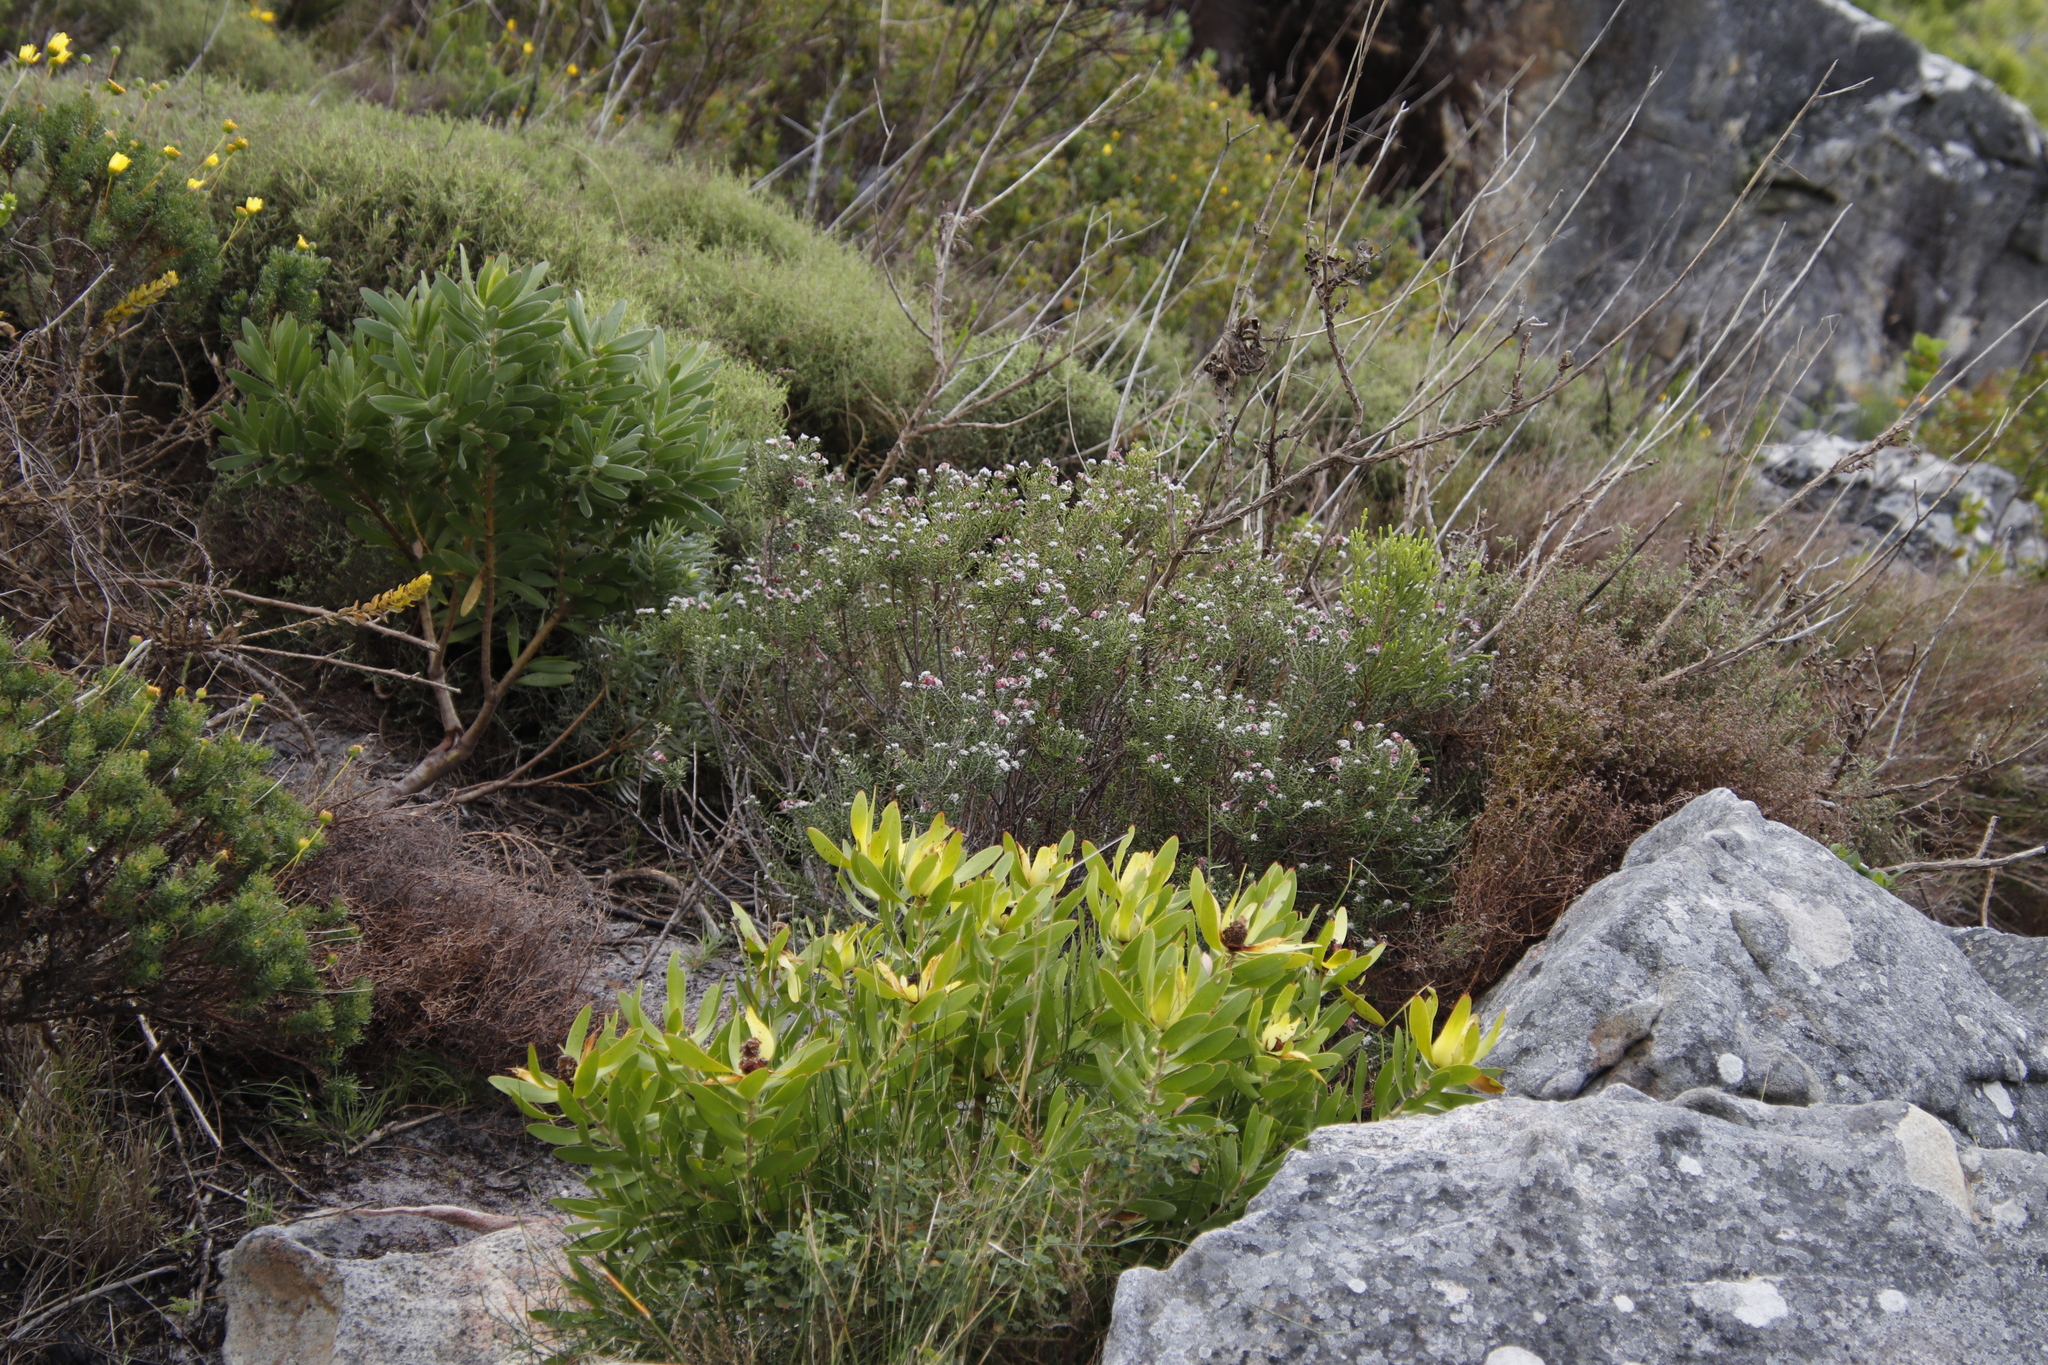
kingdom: Plantae
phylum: Tracheophyta
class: Magnoliopsida
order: Rosales
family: Rhamnaceae
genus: Trichocephalus
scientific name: Trichocephalus stipularis
